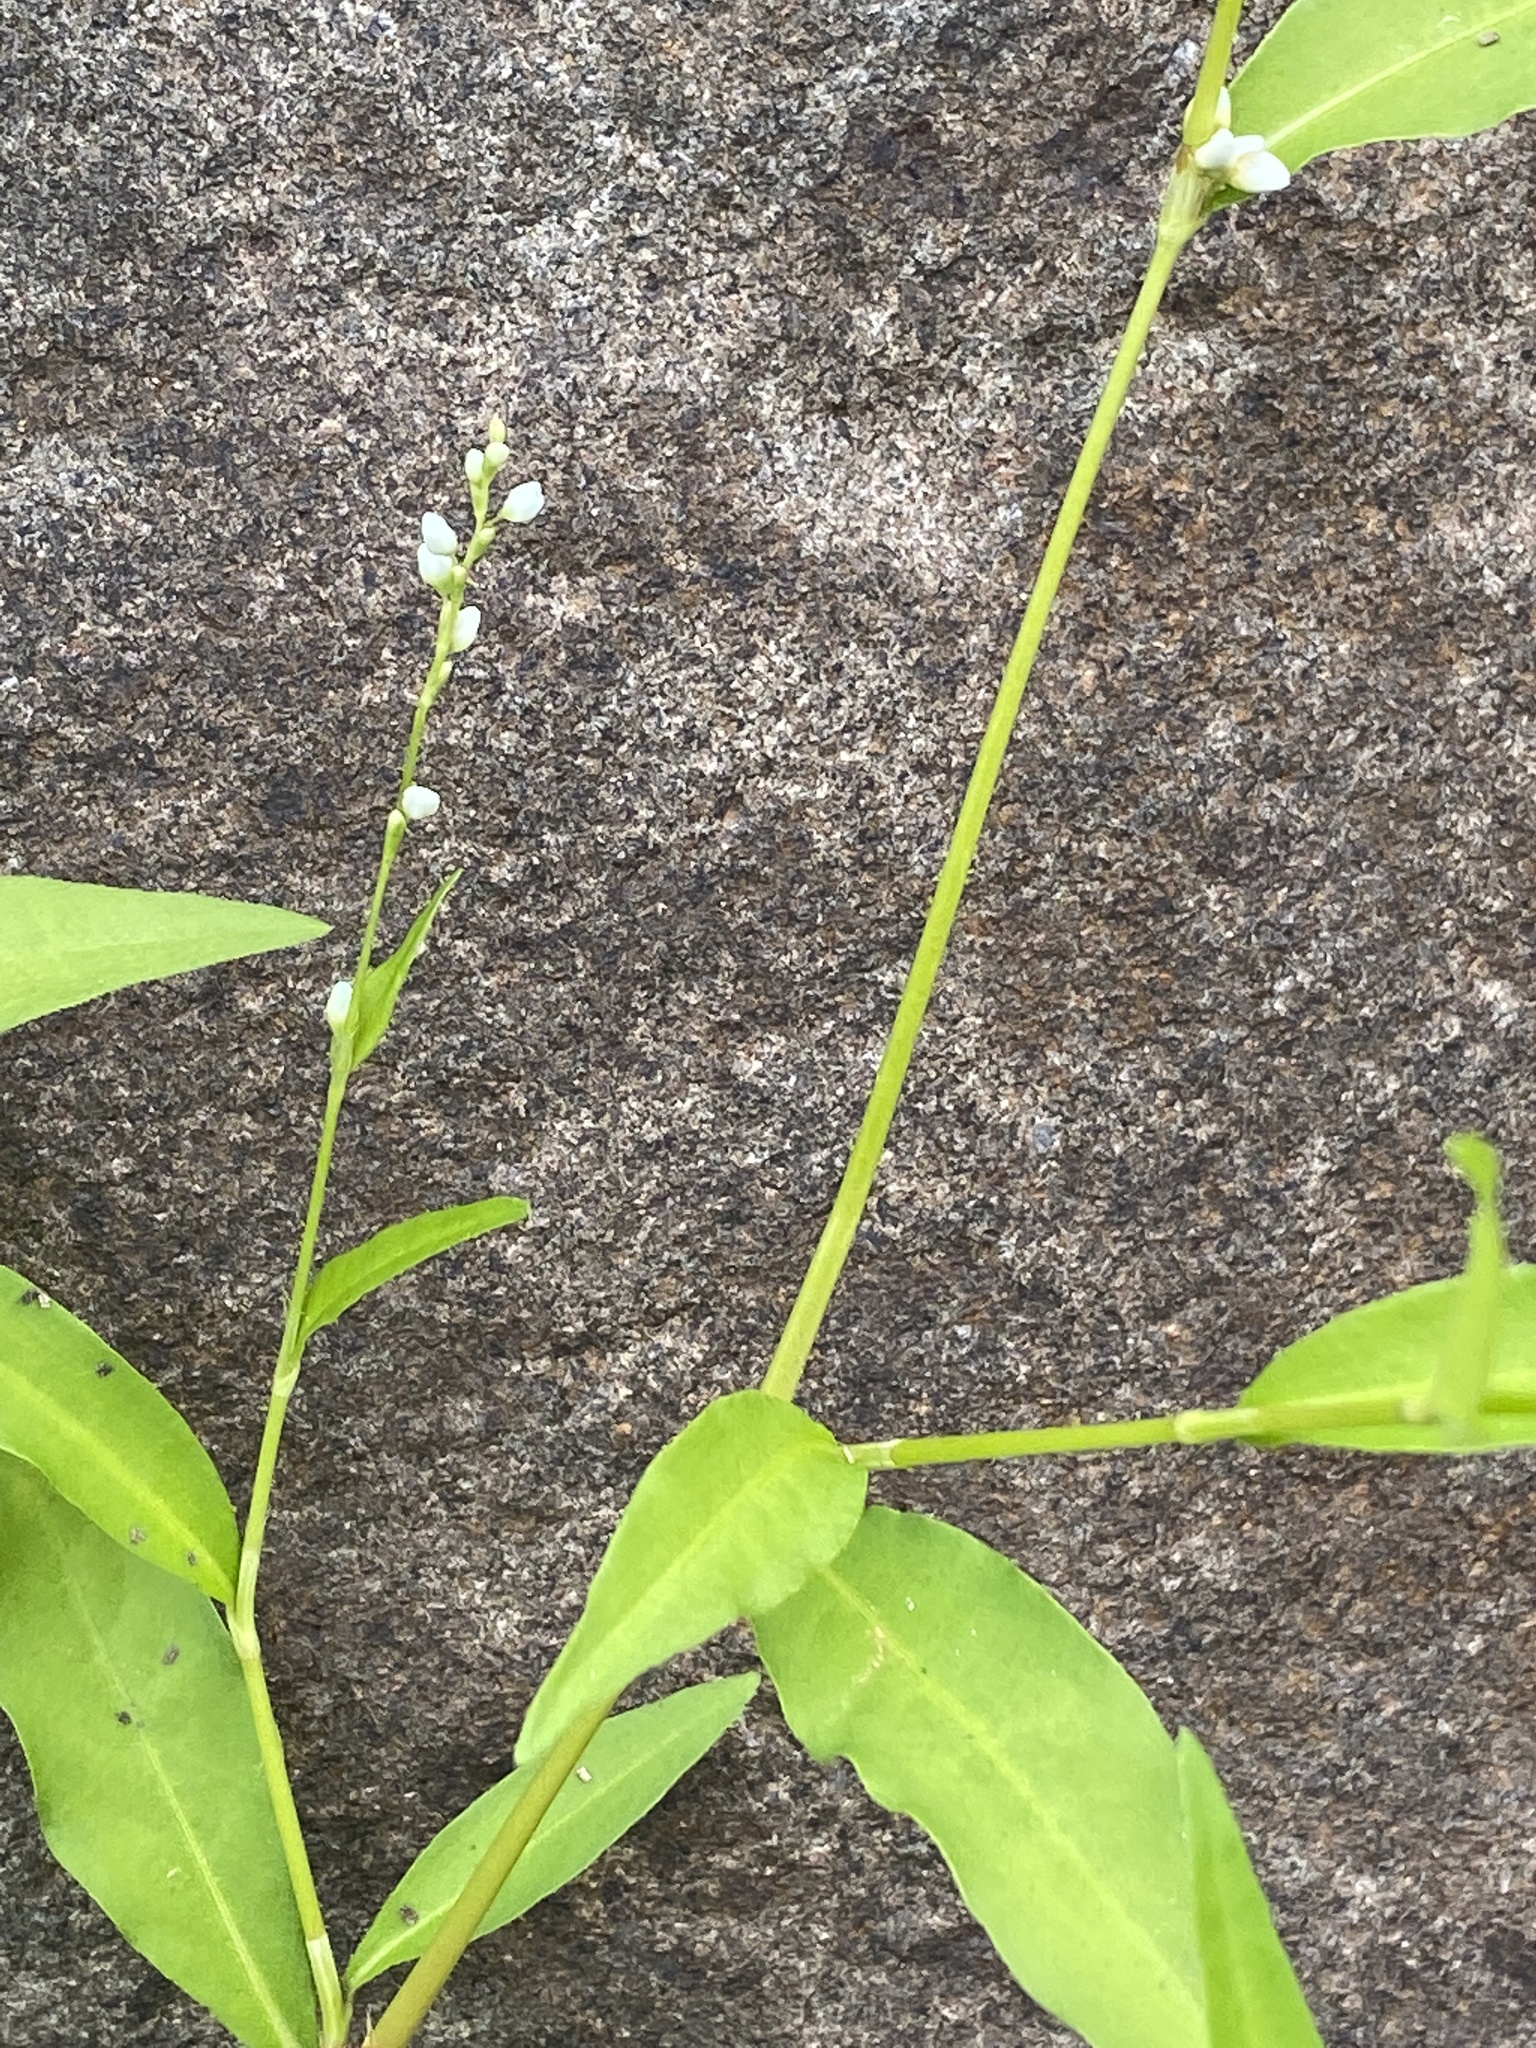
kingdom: Plantae
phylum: Tracheophyta
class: Magnoliopsida
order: Caryophyllales
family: Polygonaceae
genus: Persicaria
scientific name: Persicaria punctata
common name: Dotted smartweed
